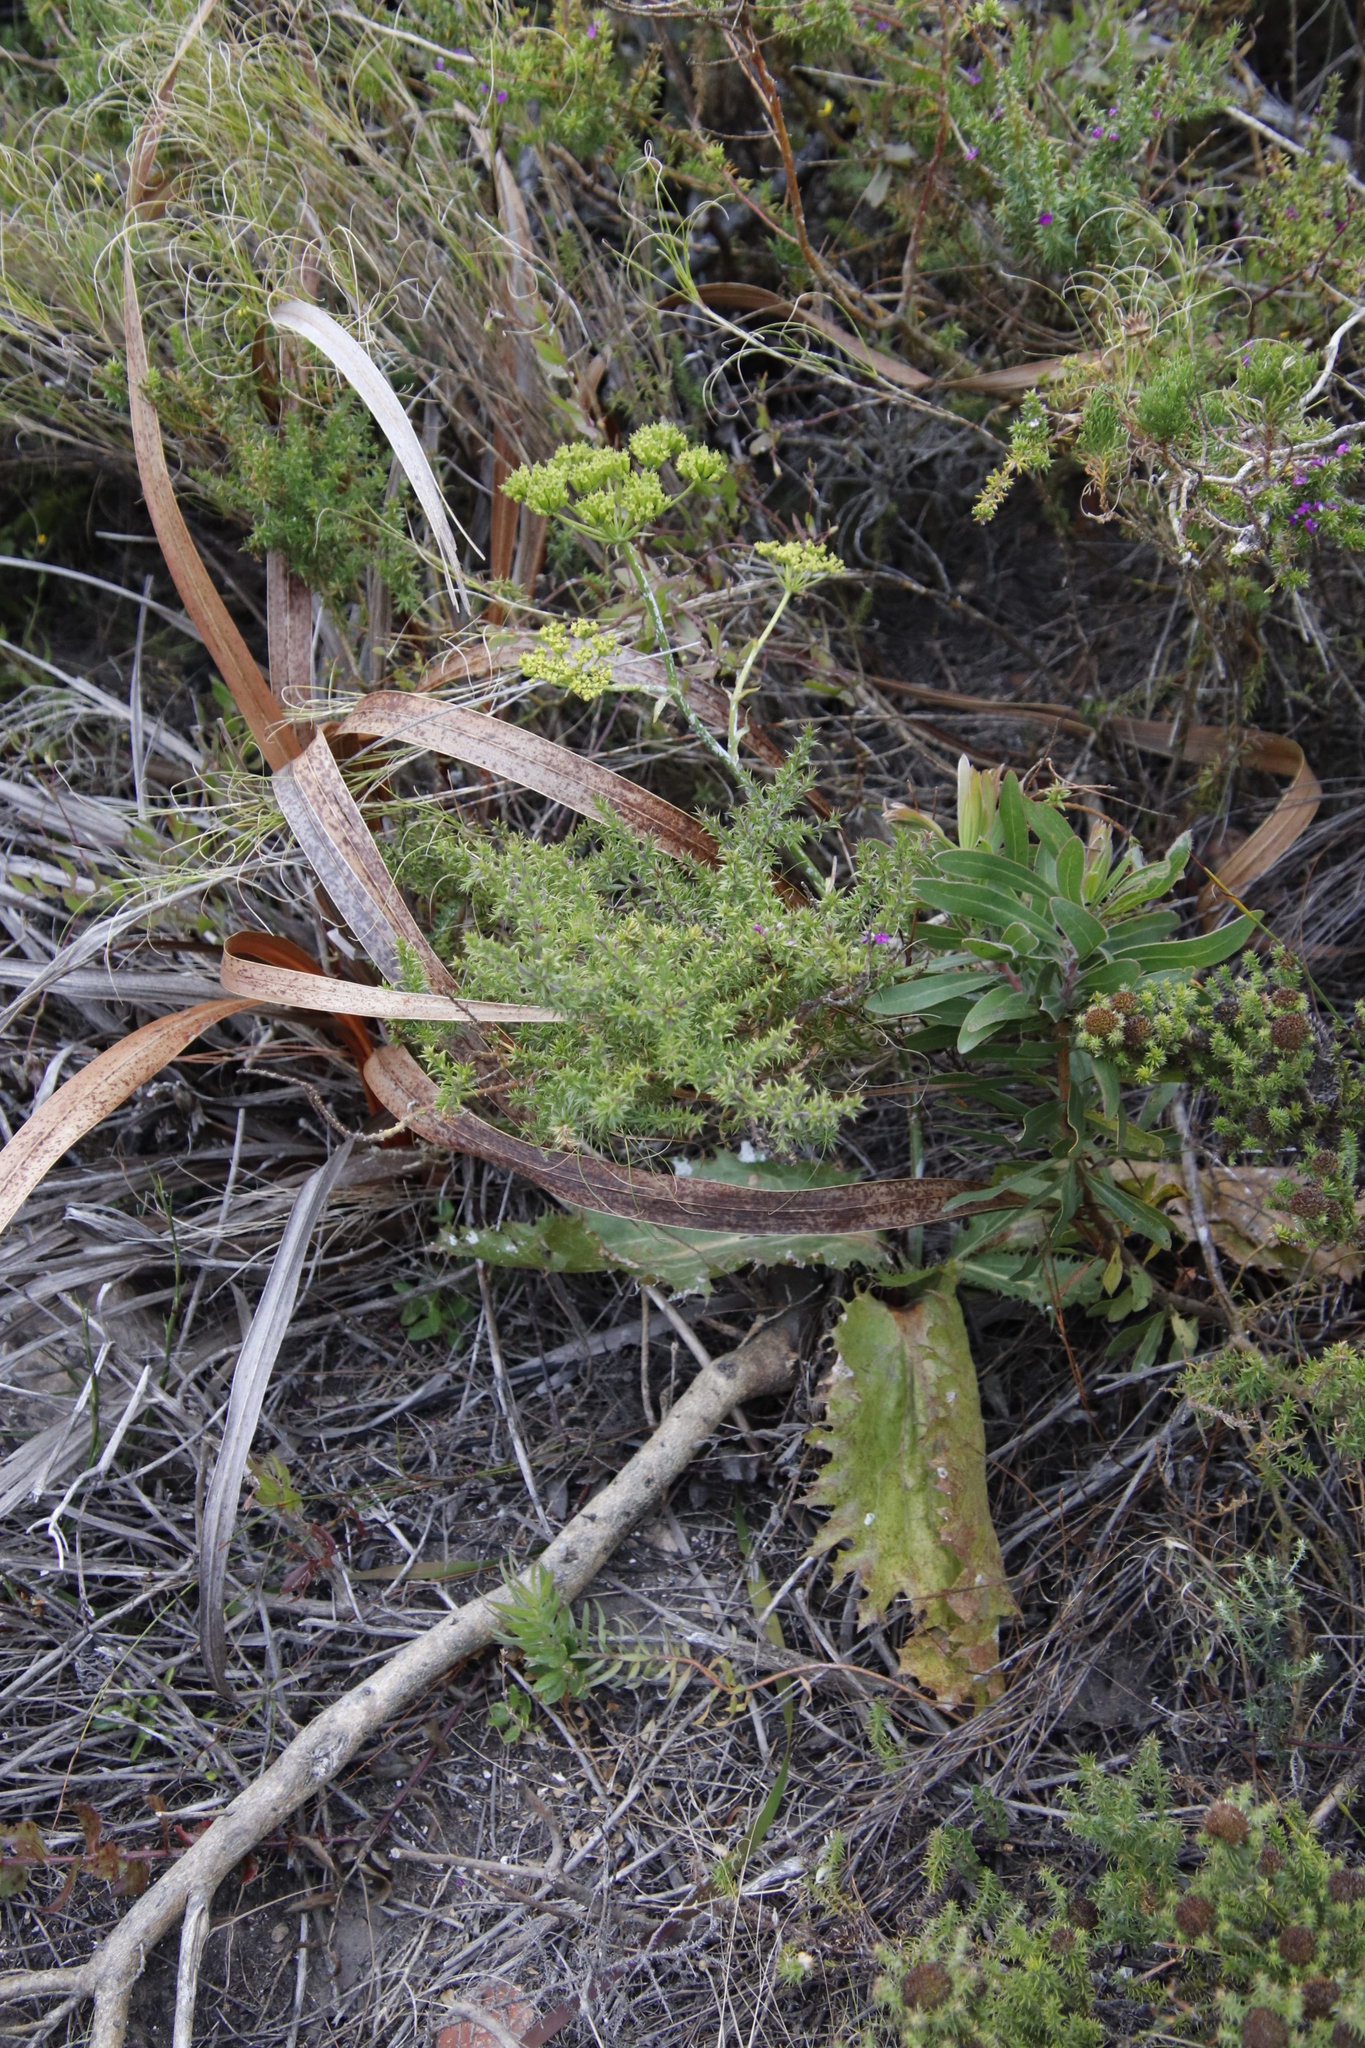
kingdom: Plantae
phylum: Tracheophyta
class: Magnoliopsida
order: Apiales
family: Apiaceae
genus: Lichtensteinia
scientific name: Lichtensteinia lacera
